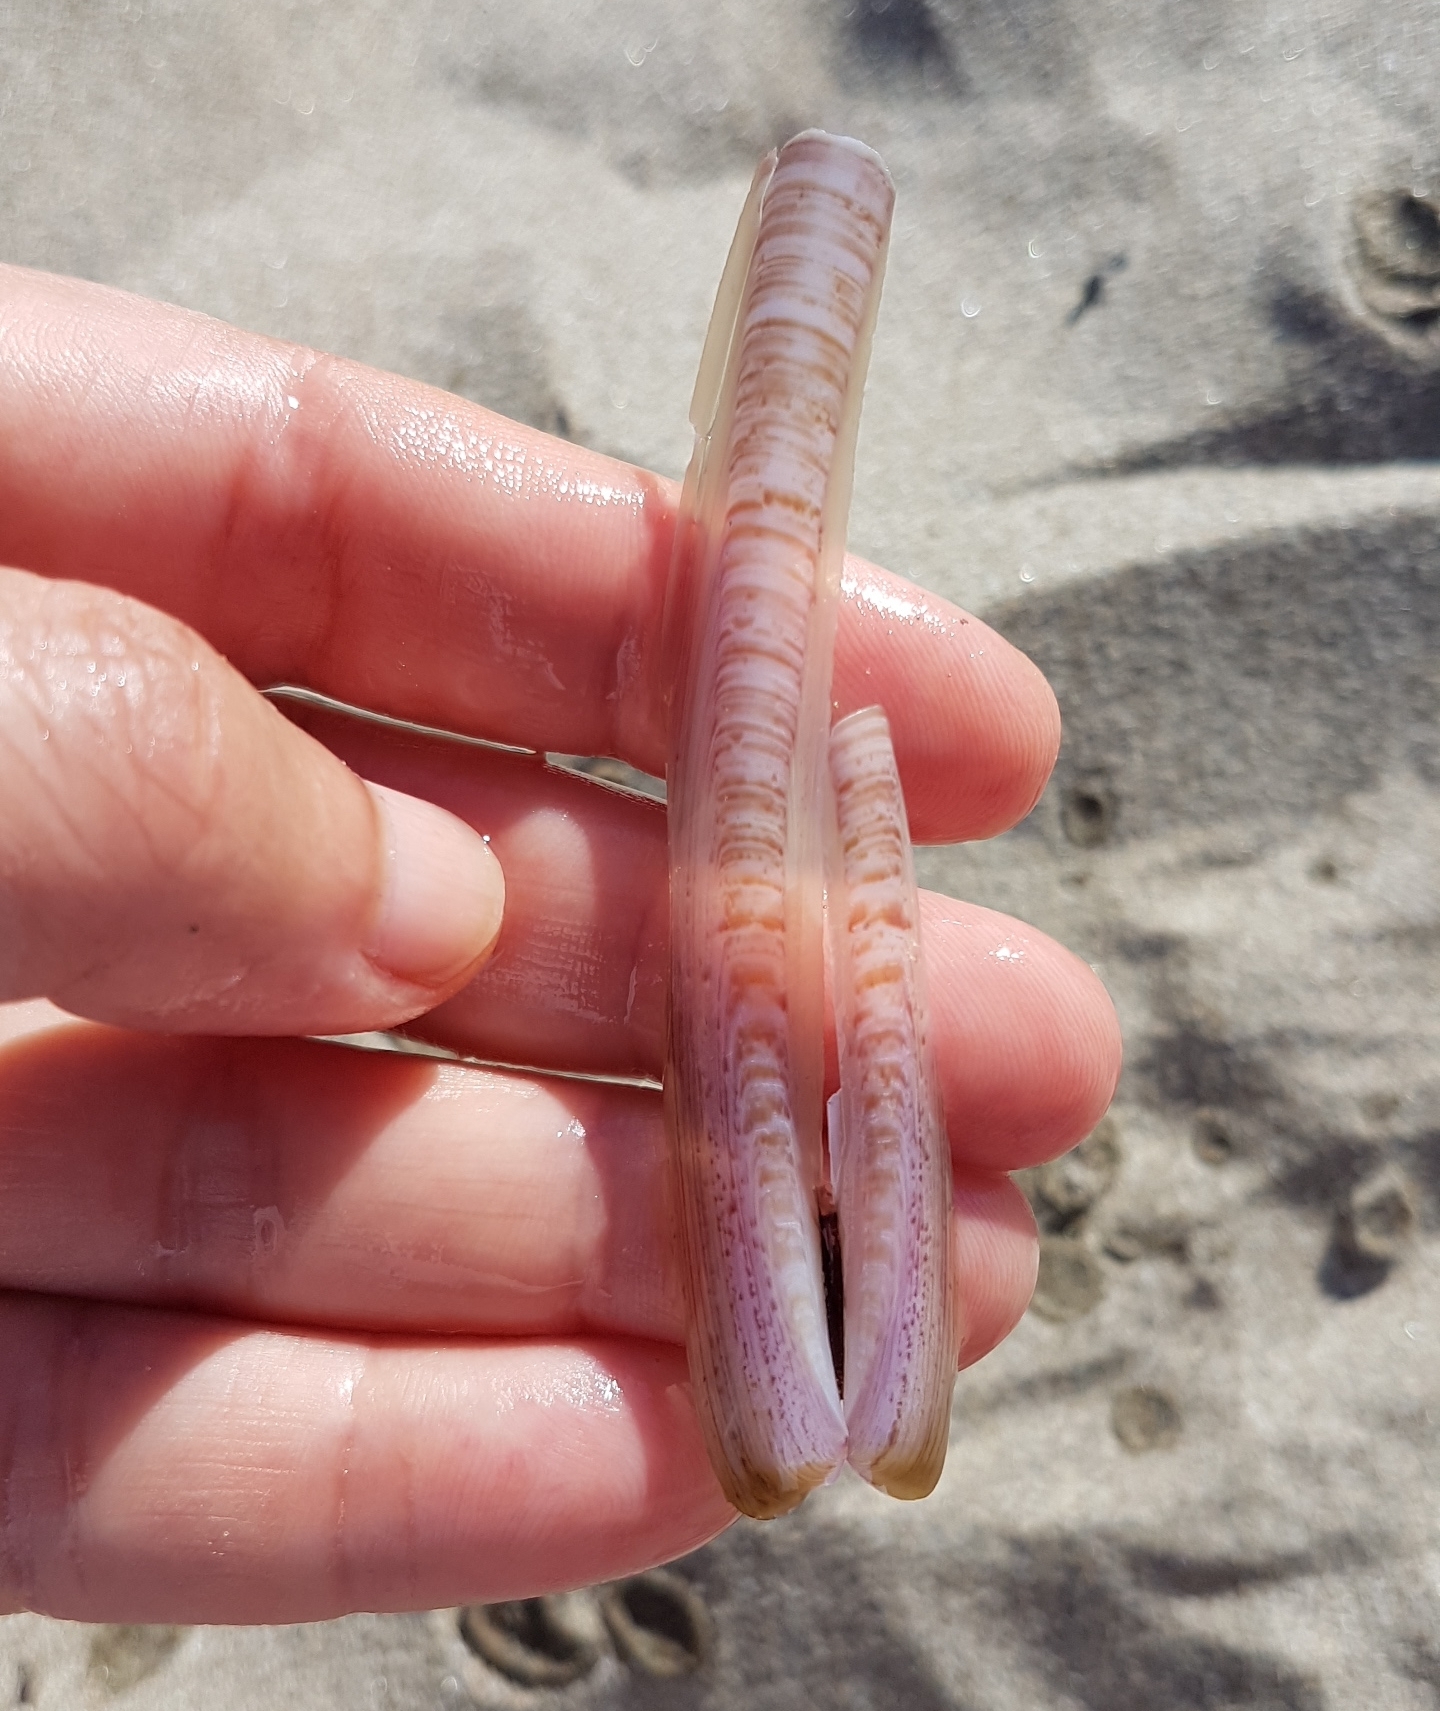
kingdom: Animalia
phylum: Mollusca
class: Bivalvia
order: Adapedonta
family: Pharidae
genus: Ensis
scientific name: Ensis ensis
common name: Common razor shell
